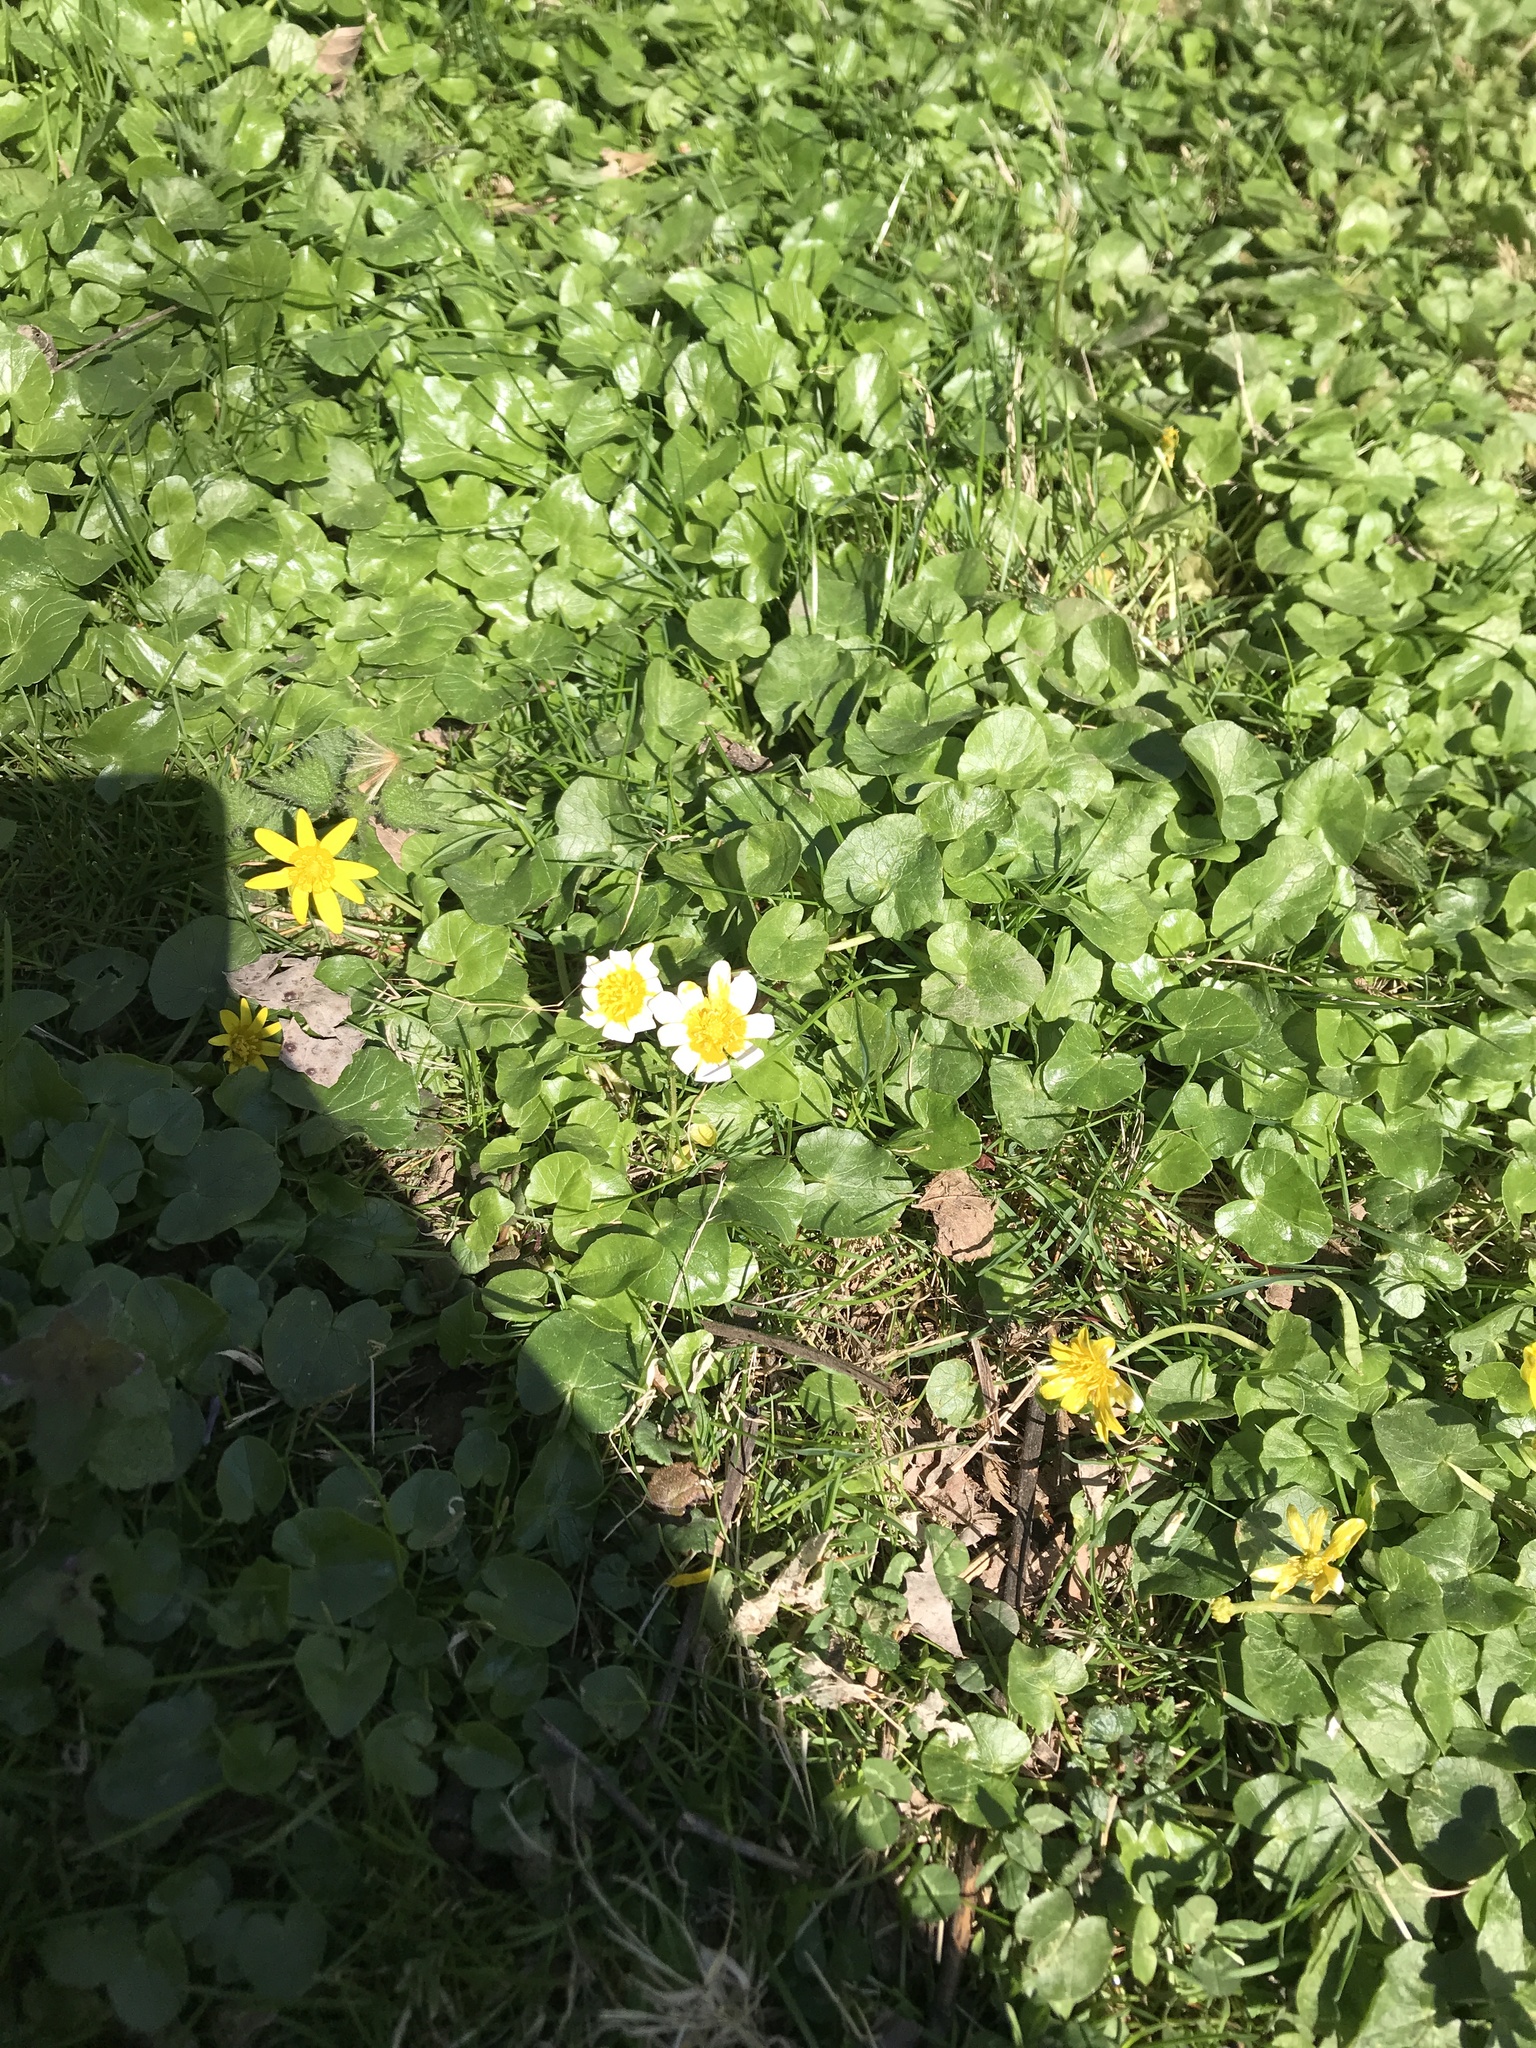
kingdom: Plantae
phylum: Tracheophyta
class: Magnoliopsida
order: Ranunculales
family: Ranunculaceae
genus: Ficaria
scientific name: Ficaria verna
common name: Lesser celandine
